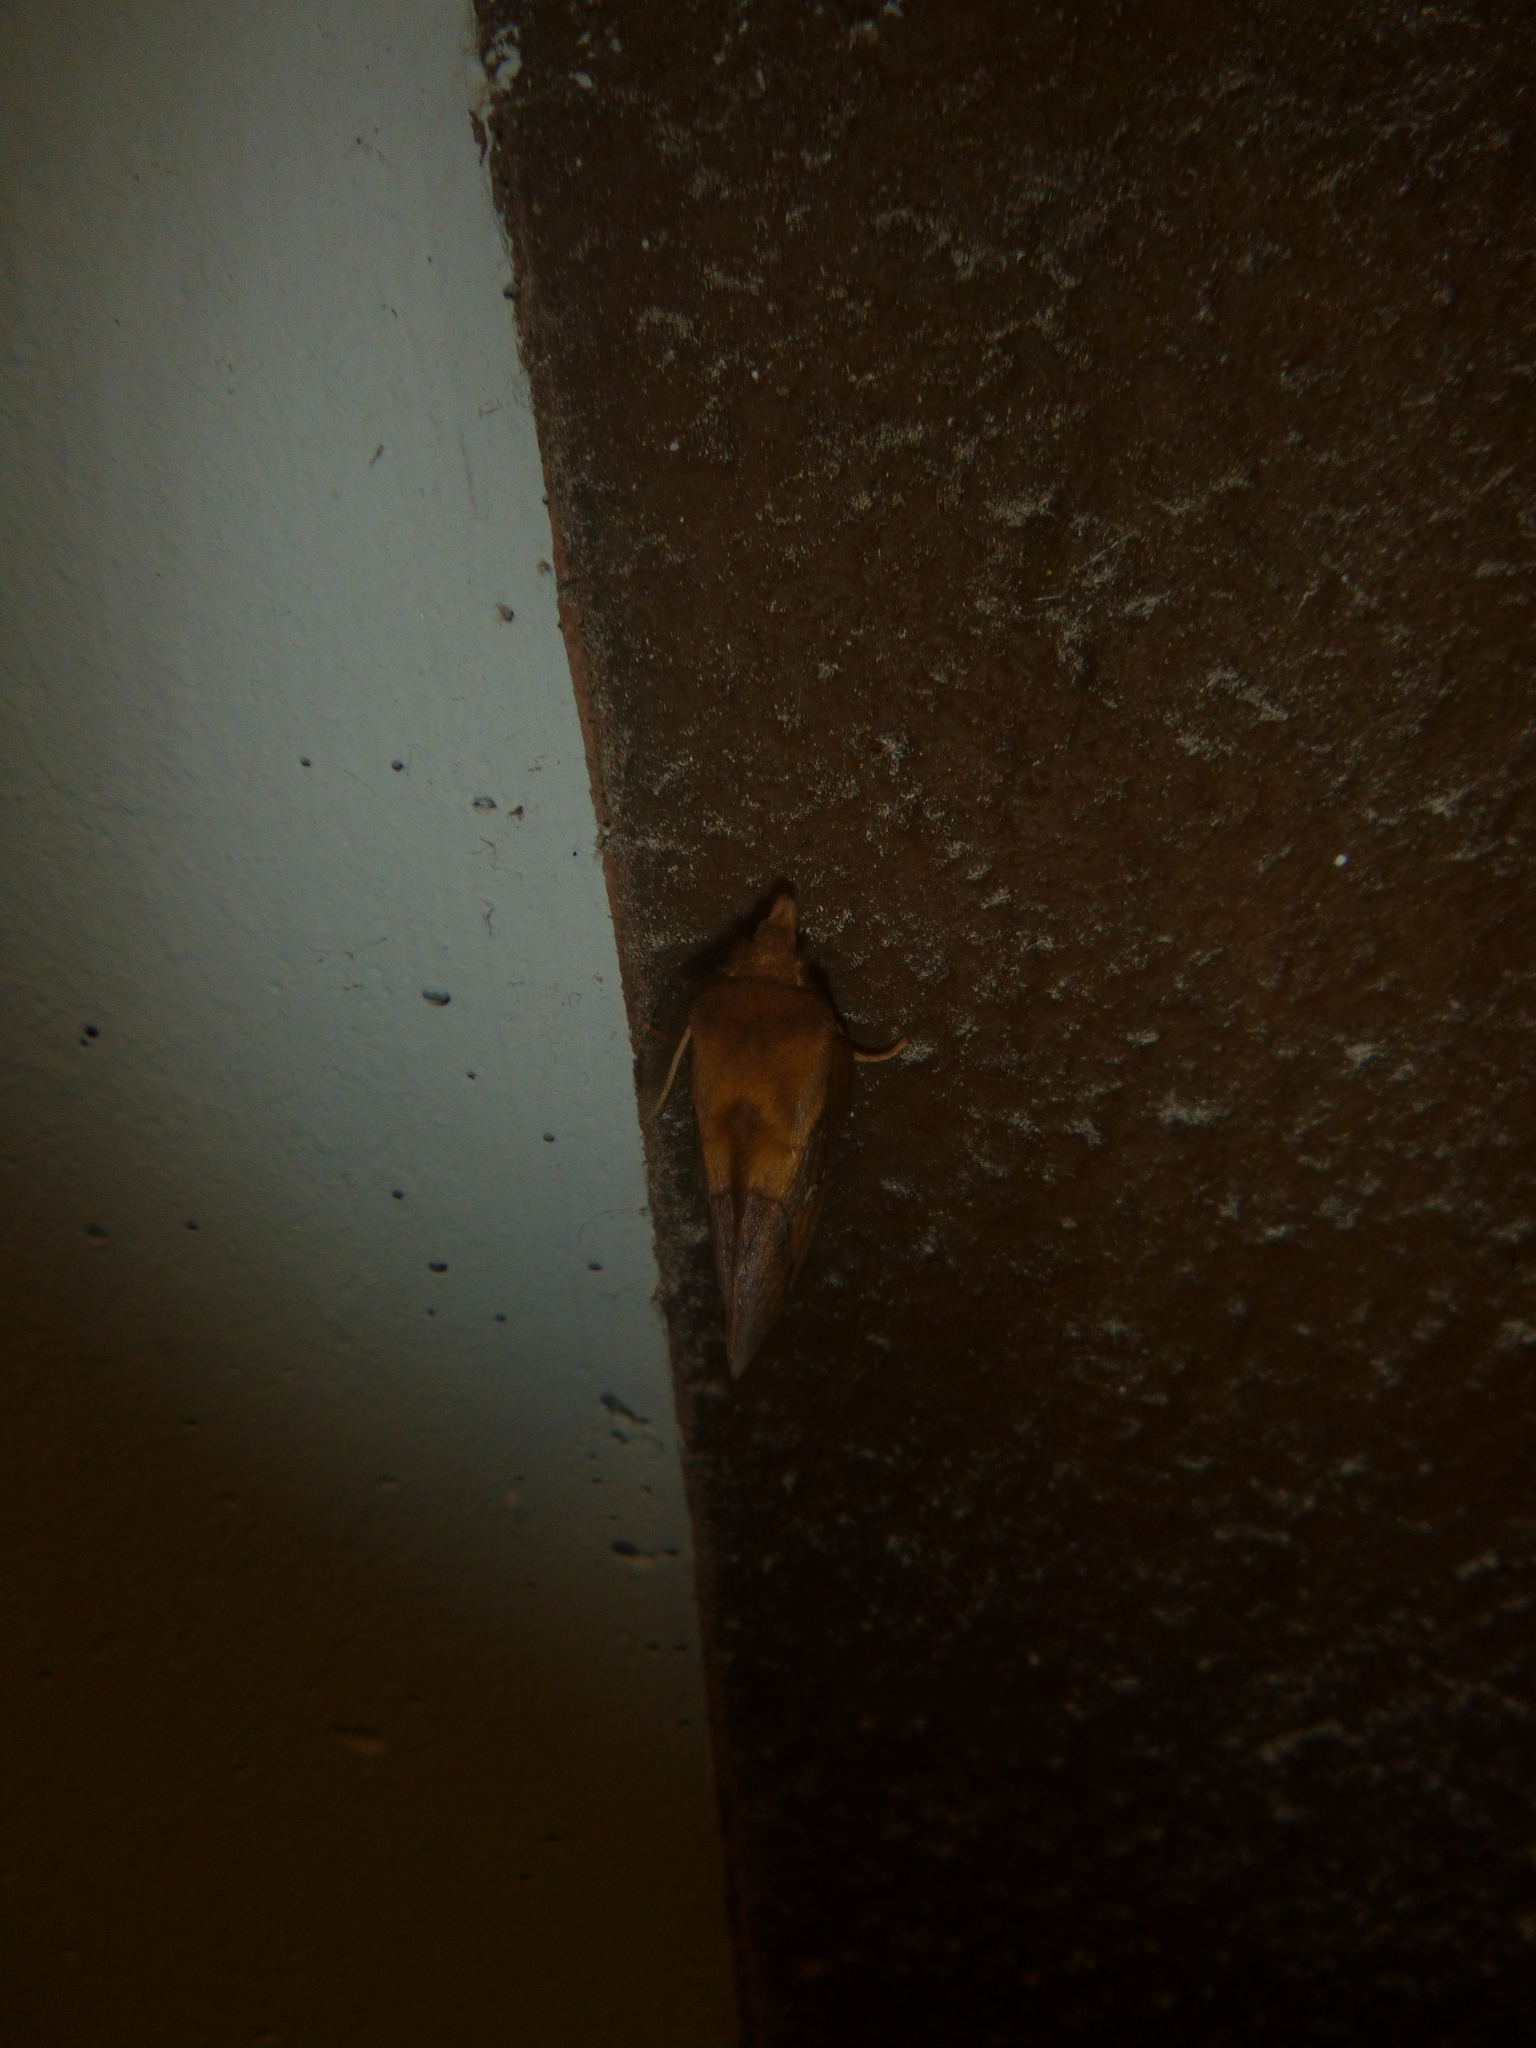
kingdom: Animalia
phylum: Arthropoda
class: Insecta
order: Lepidoptera
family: Lasiocampidae
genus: Euthrix
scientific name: Euthrix potatoria
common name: Drinker
